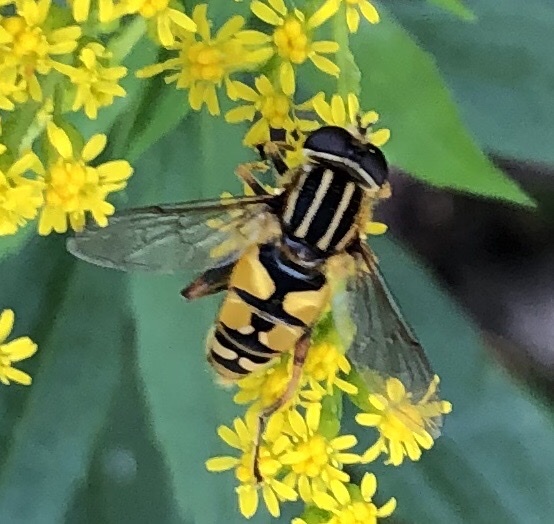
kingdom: Animalia
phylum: Arthropoda
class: Insecta
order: Diptera
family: Syrphidae
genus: Helophilus
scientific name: Helophilus pendulus
